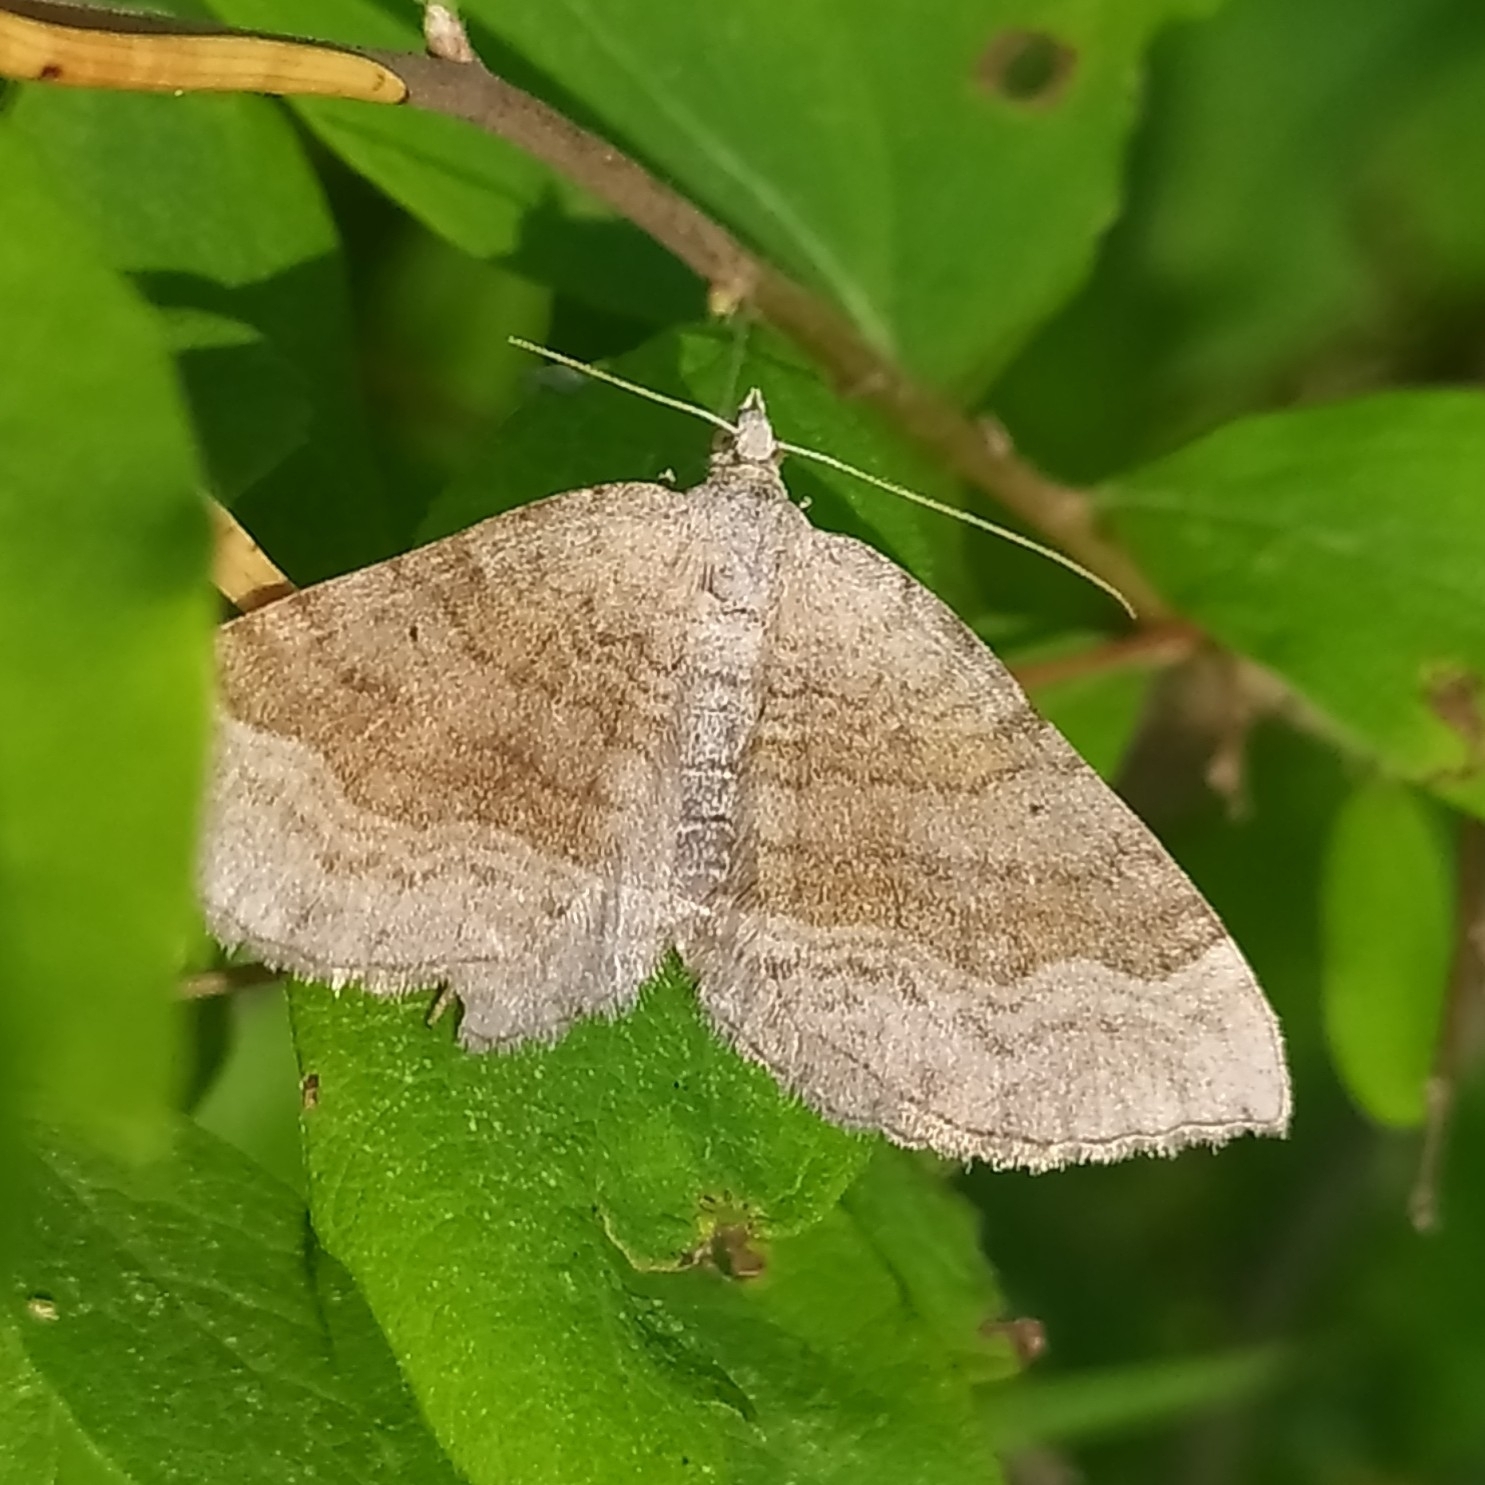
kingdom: Animalia
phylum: Arthropoda
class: Insecta
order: Lepidoptera
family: Geometridae
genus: Scotopteryx
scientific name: Scotopteryx chenopodiata
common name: Shaded broad-bar
